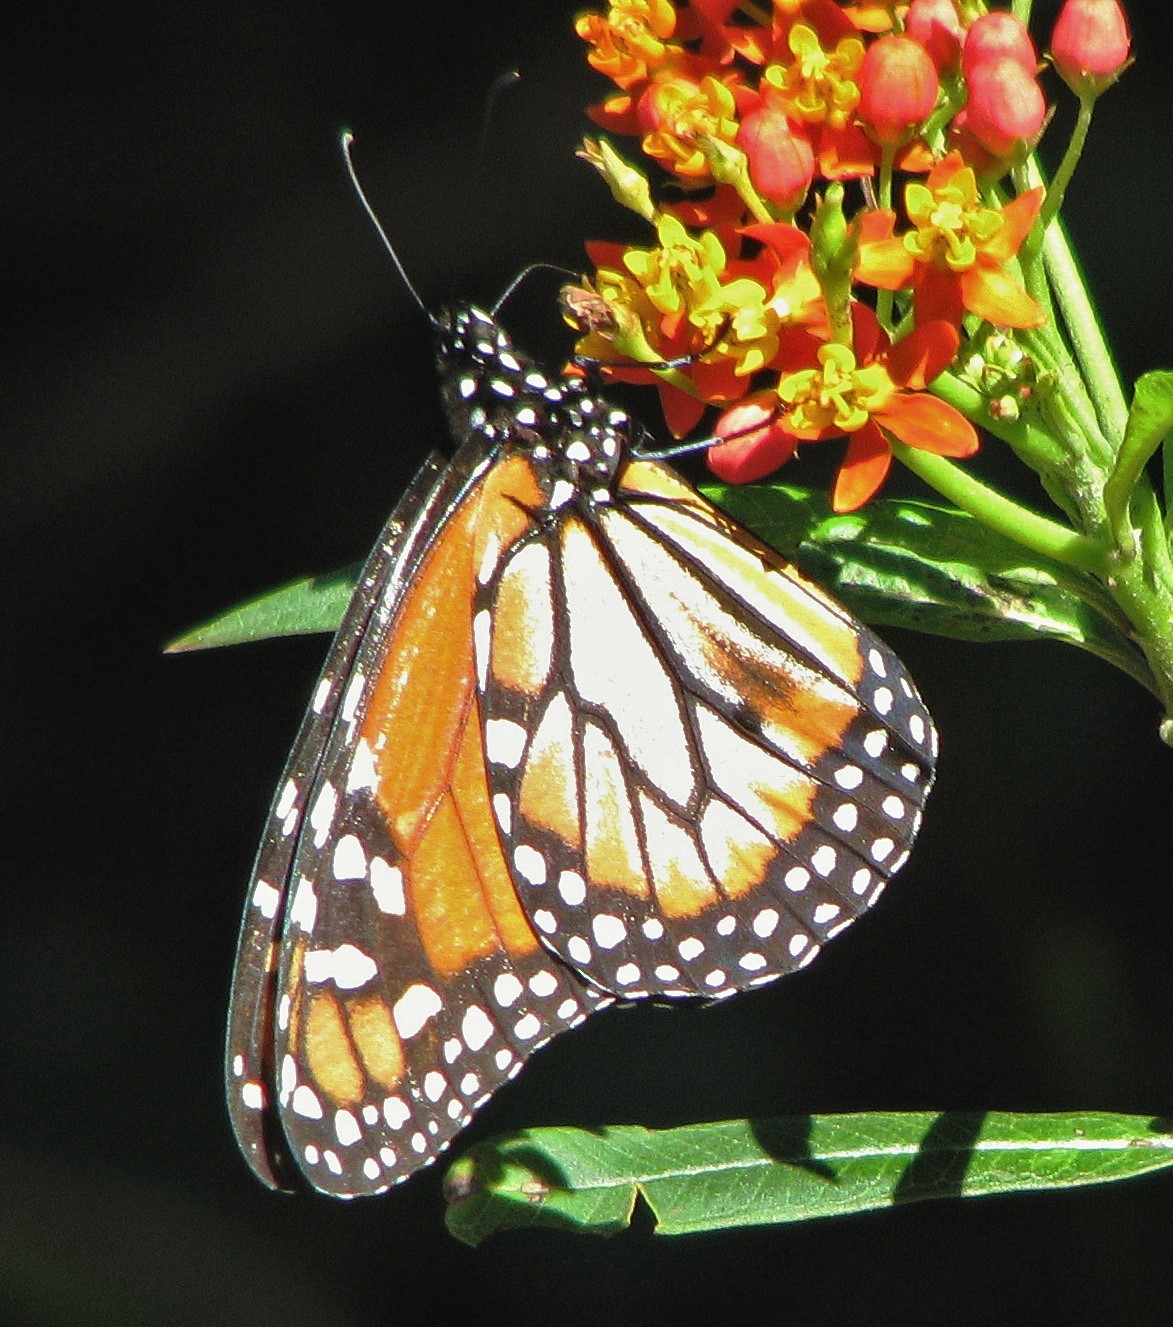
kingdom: Animalia
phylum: Arthropoda
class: Insecta
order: Lepidoptera
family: Nymphalidae
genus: Danaus
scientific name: Danaus erippus
